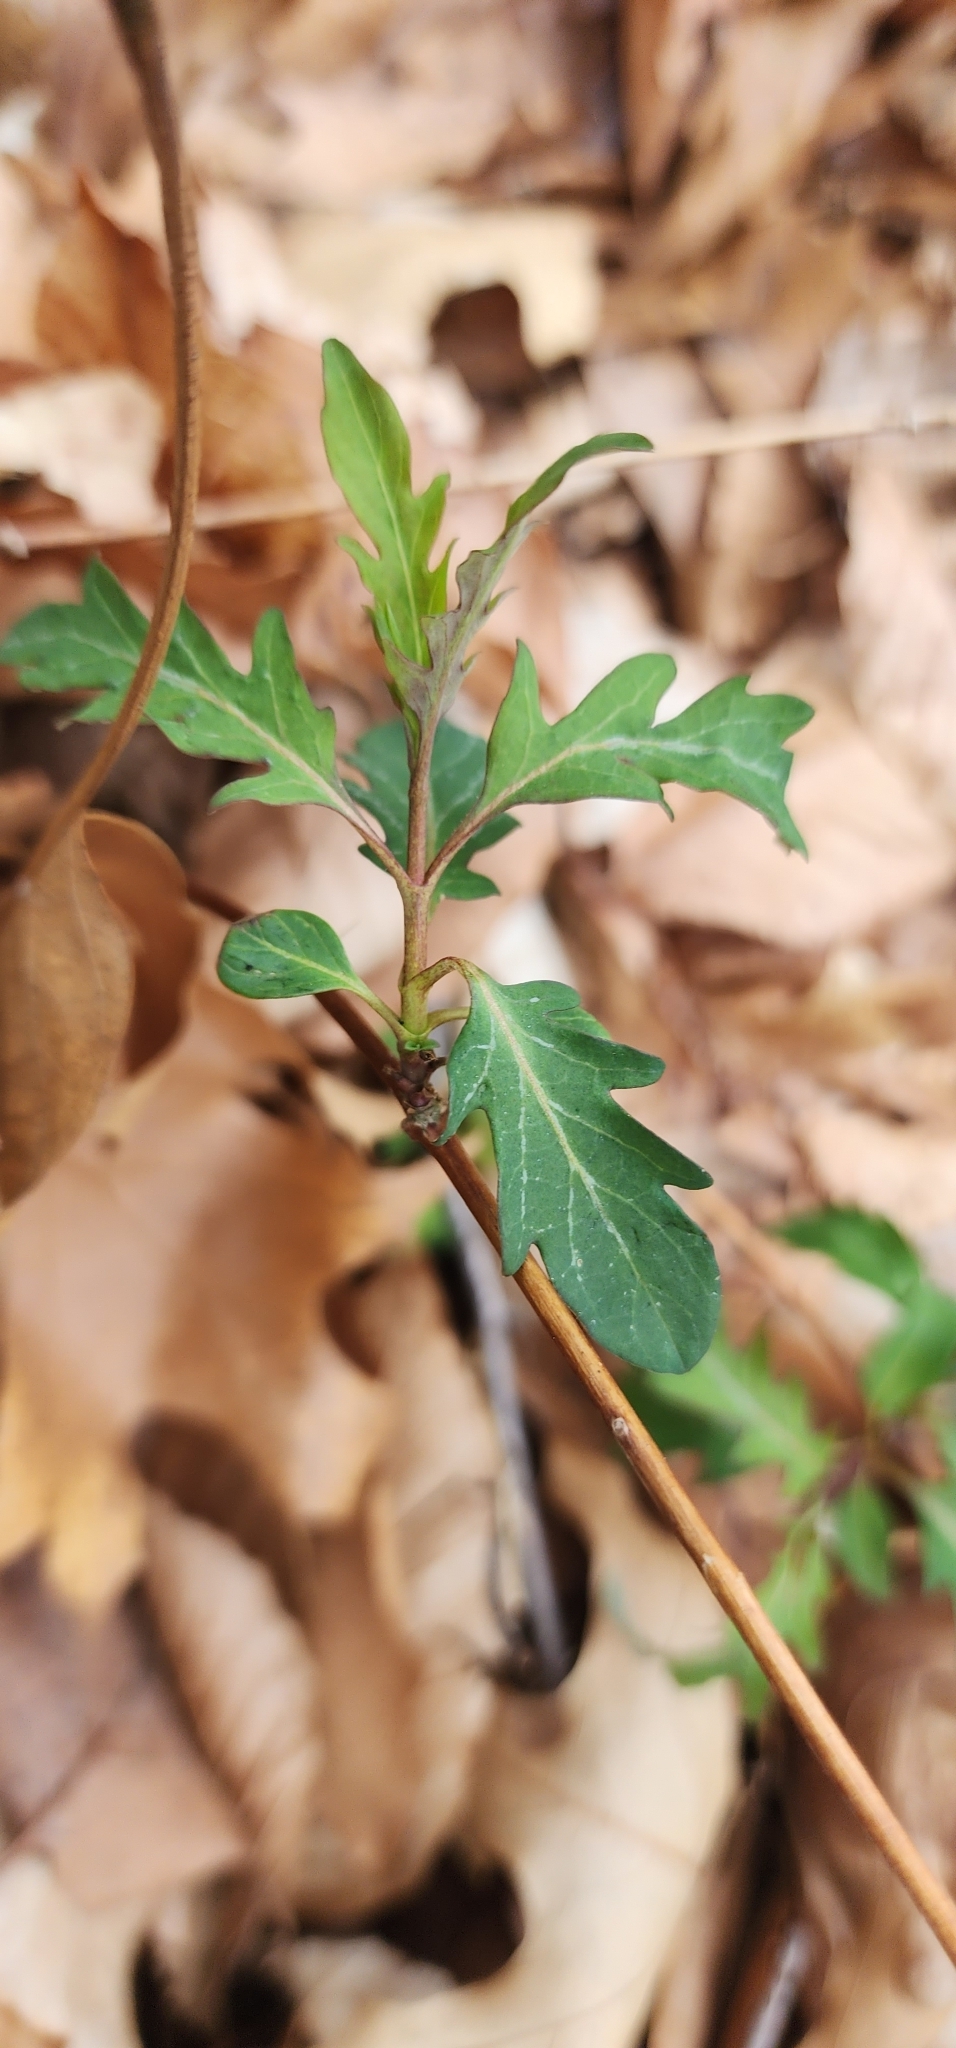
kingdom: Plantae
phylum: Tracheophyta
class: Magnoliopsida
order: Dipsacales
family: Caprifoliaceae
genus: Lonicera
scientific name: Lonicera japonica
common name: Japanese honeysuckle
